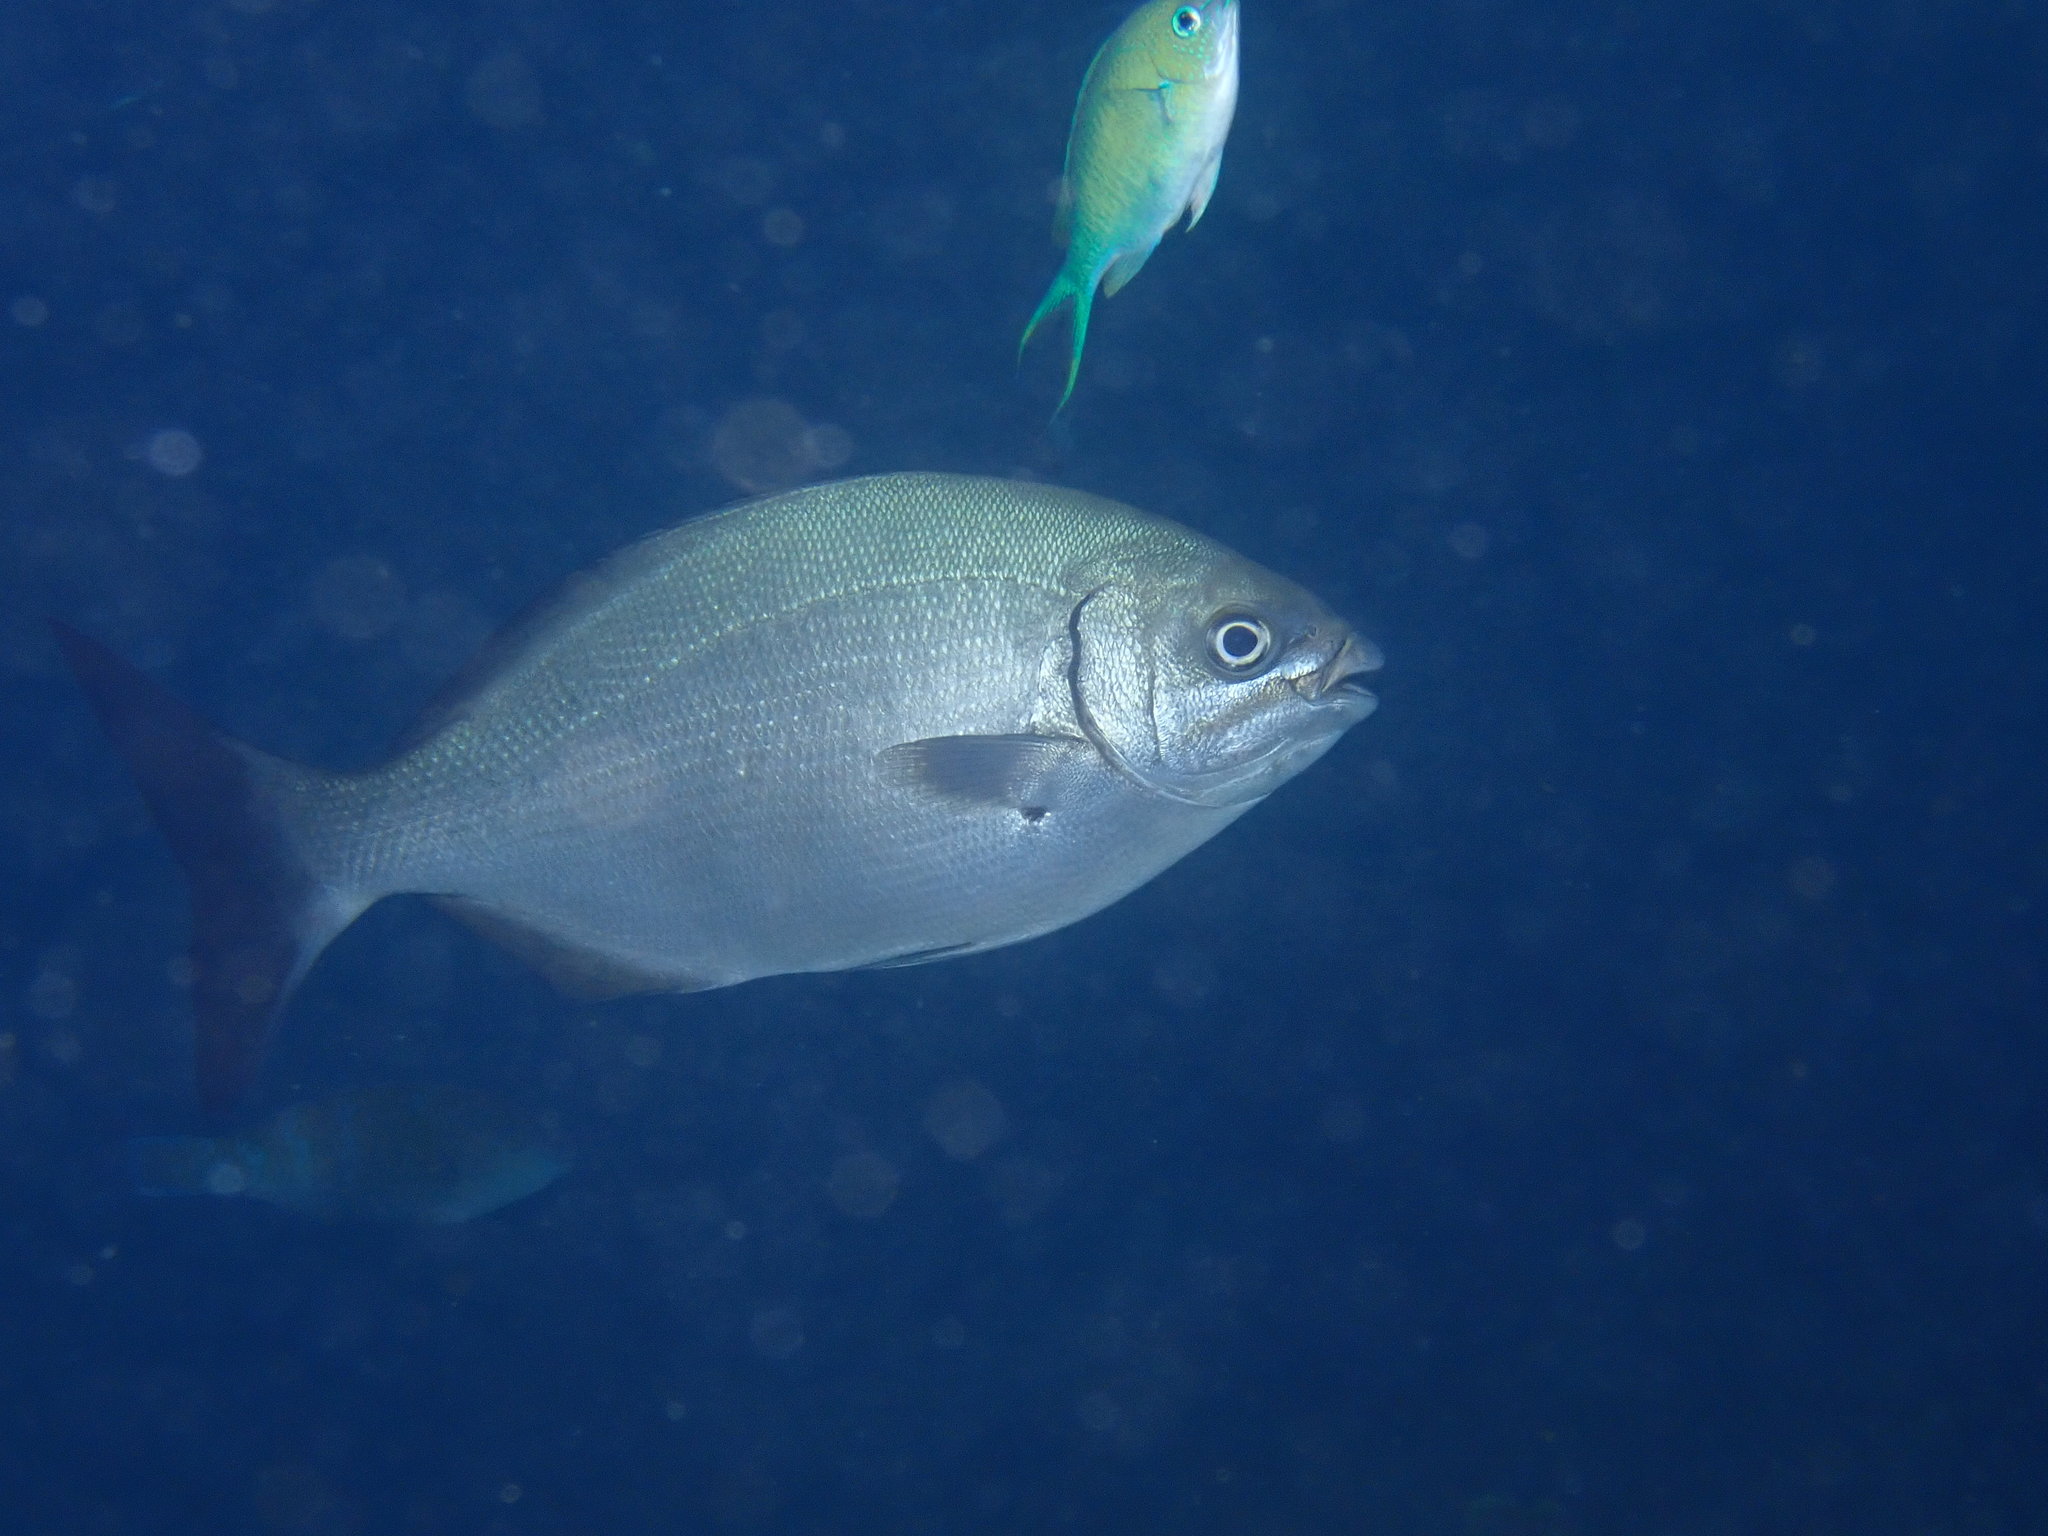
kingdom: Animalia
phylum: Chordata
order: Perciformes
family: Kyphosidae
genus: Kyphosus
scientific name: Kyphosus bigibbus
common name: Brown chub
